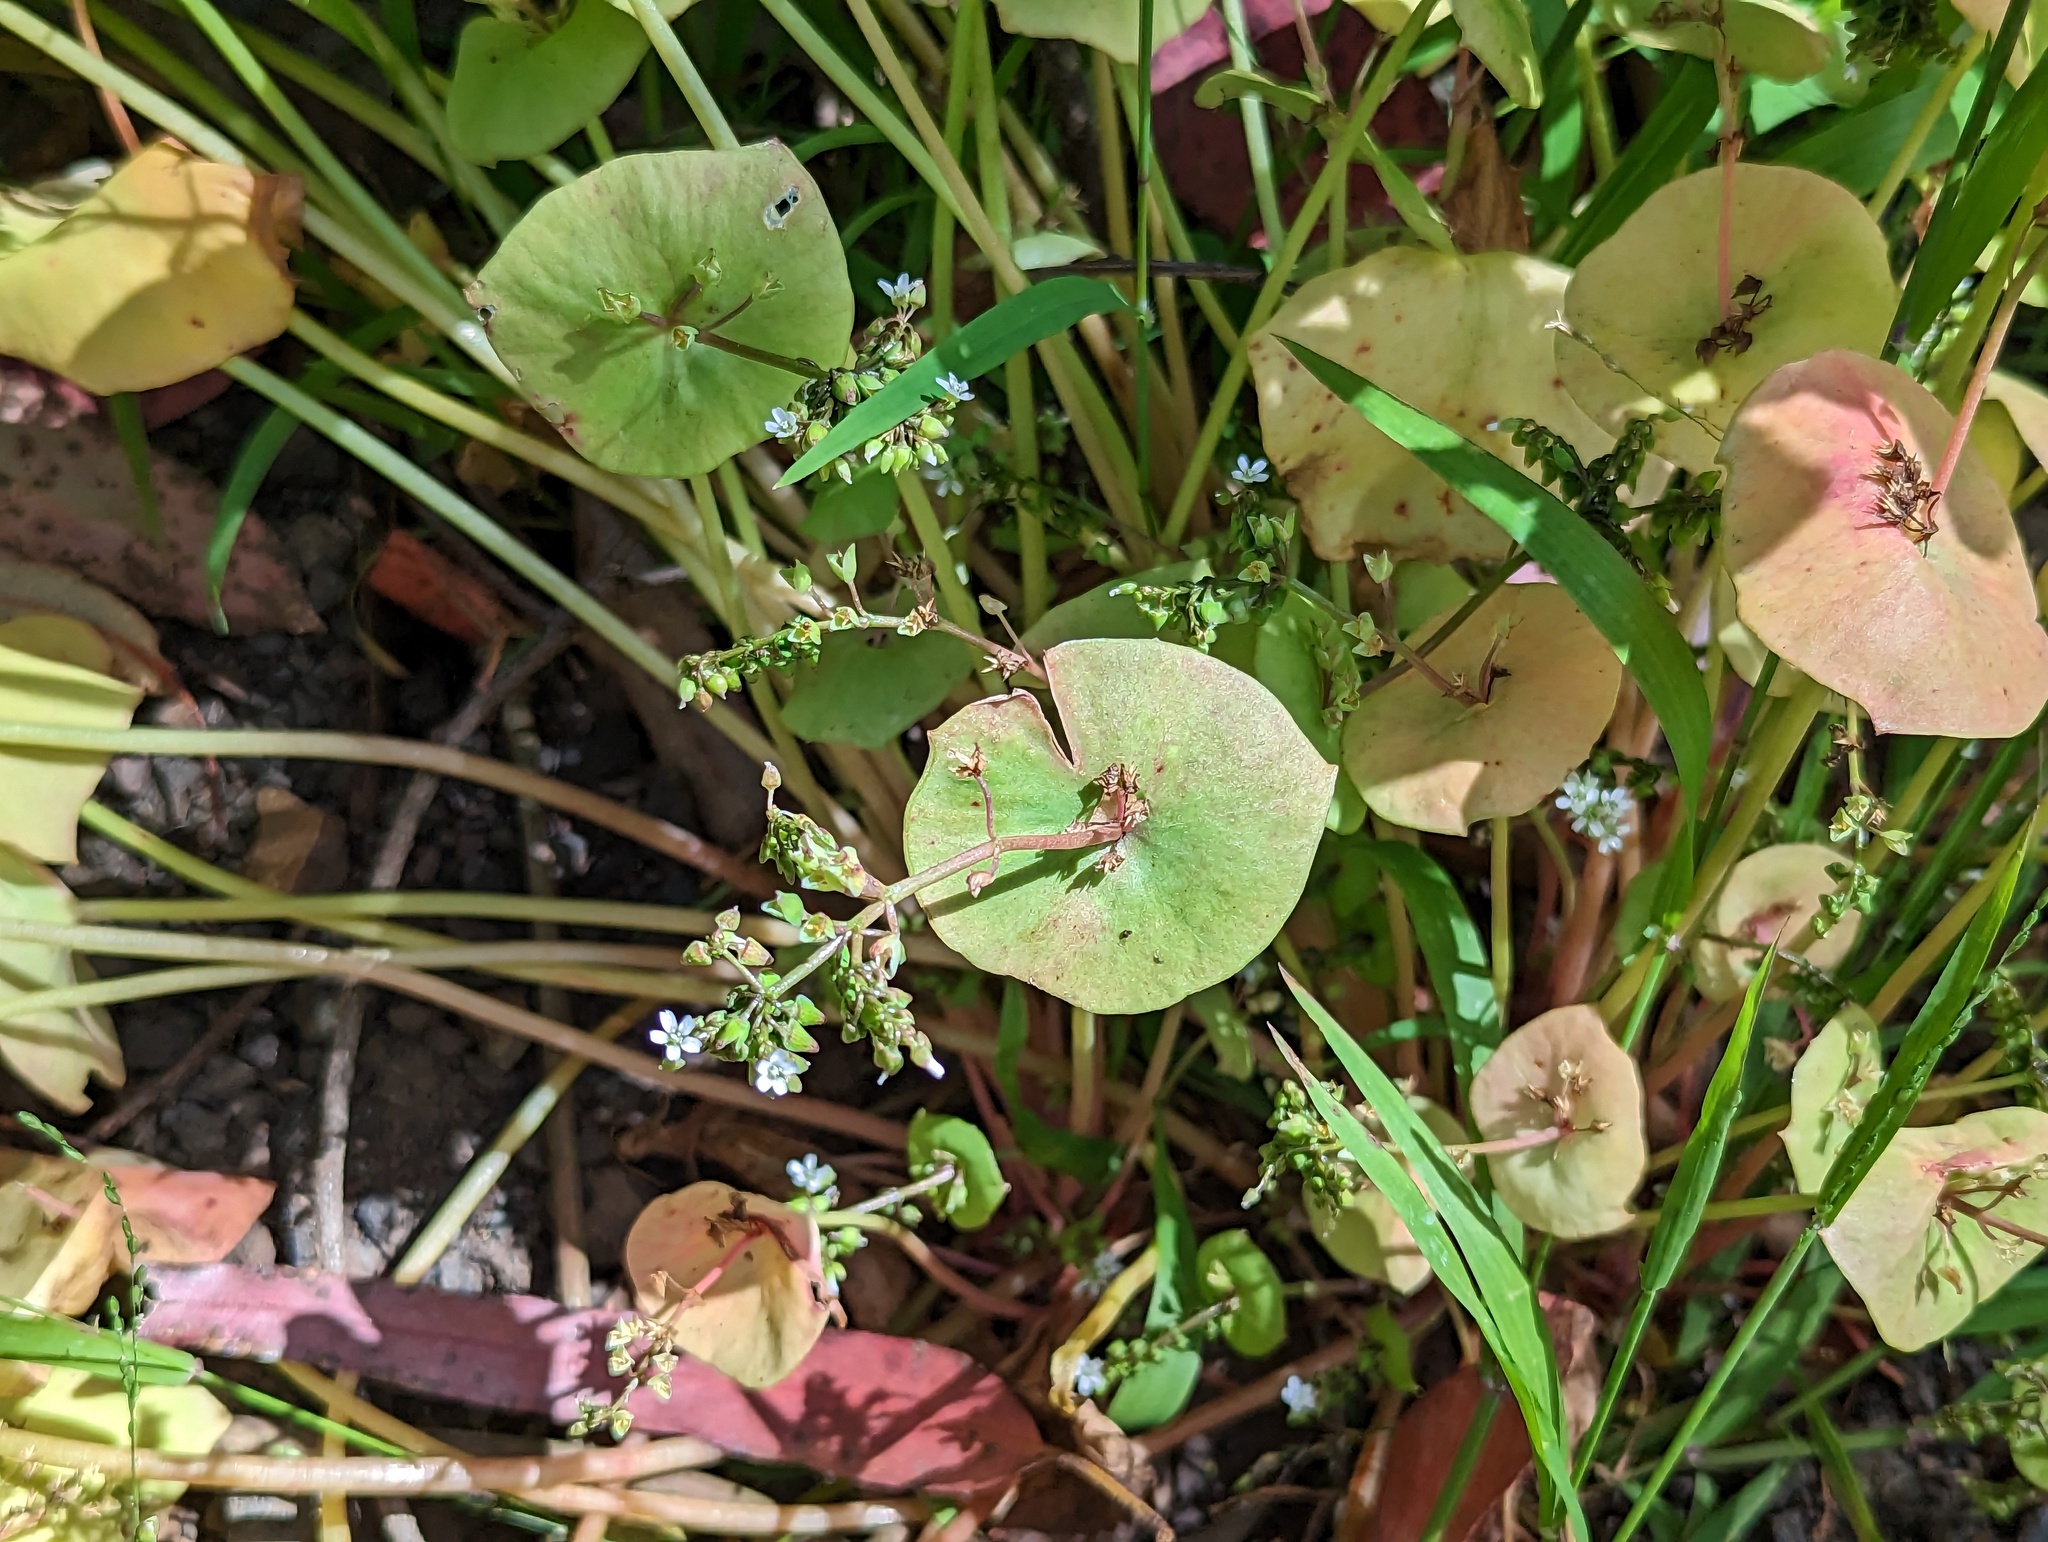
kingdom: Plantae
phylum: Tracheophyta
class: Magnoliopsida
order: Caryophyllales
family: Montiaceae
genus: Claytonia
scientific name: Claytonia perfoliata
